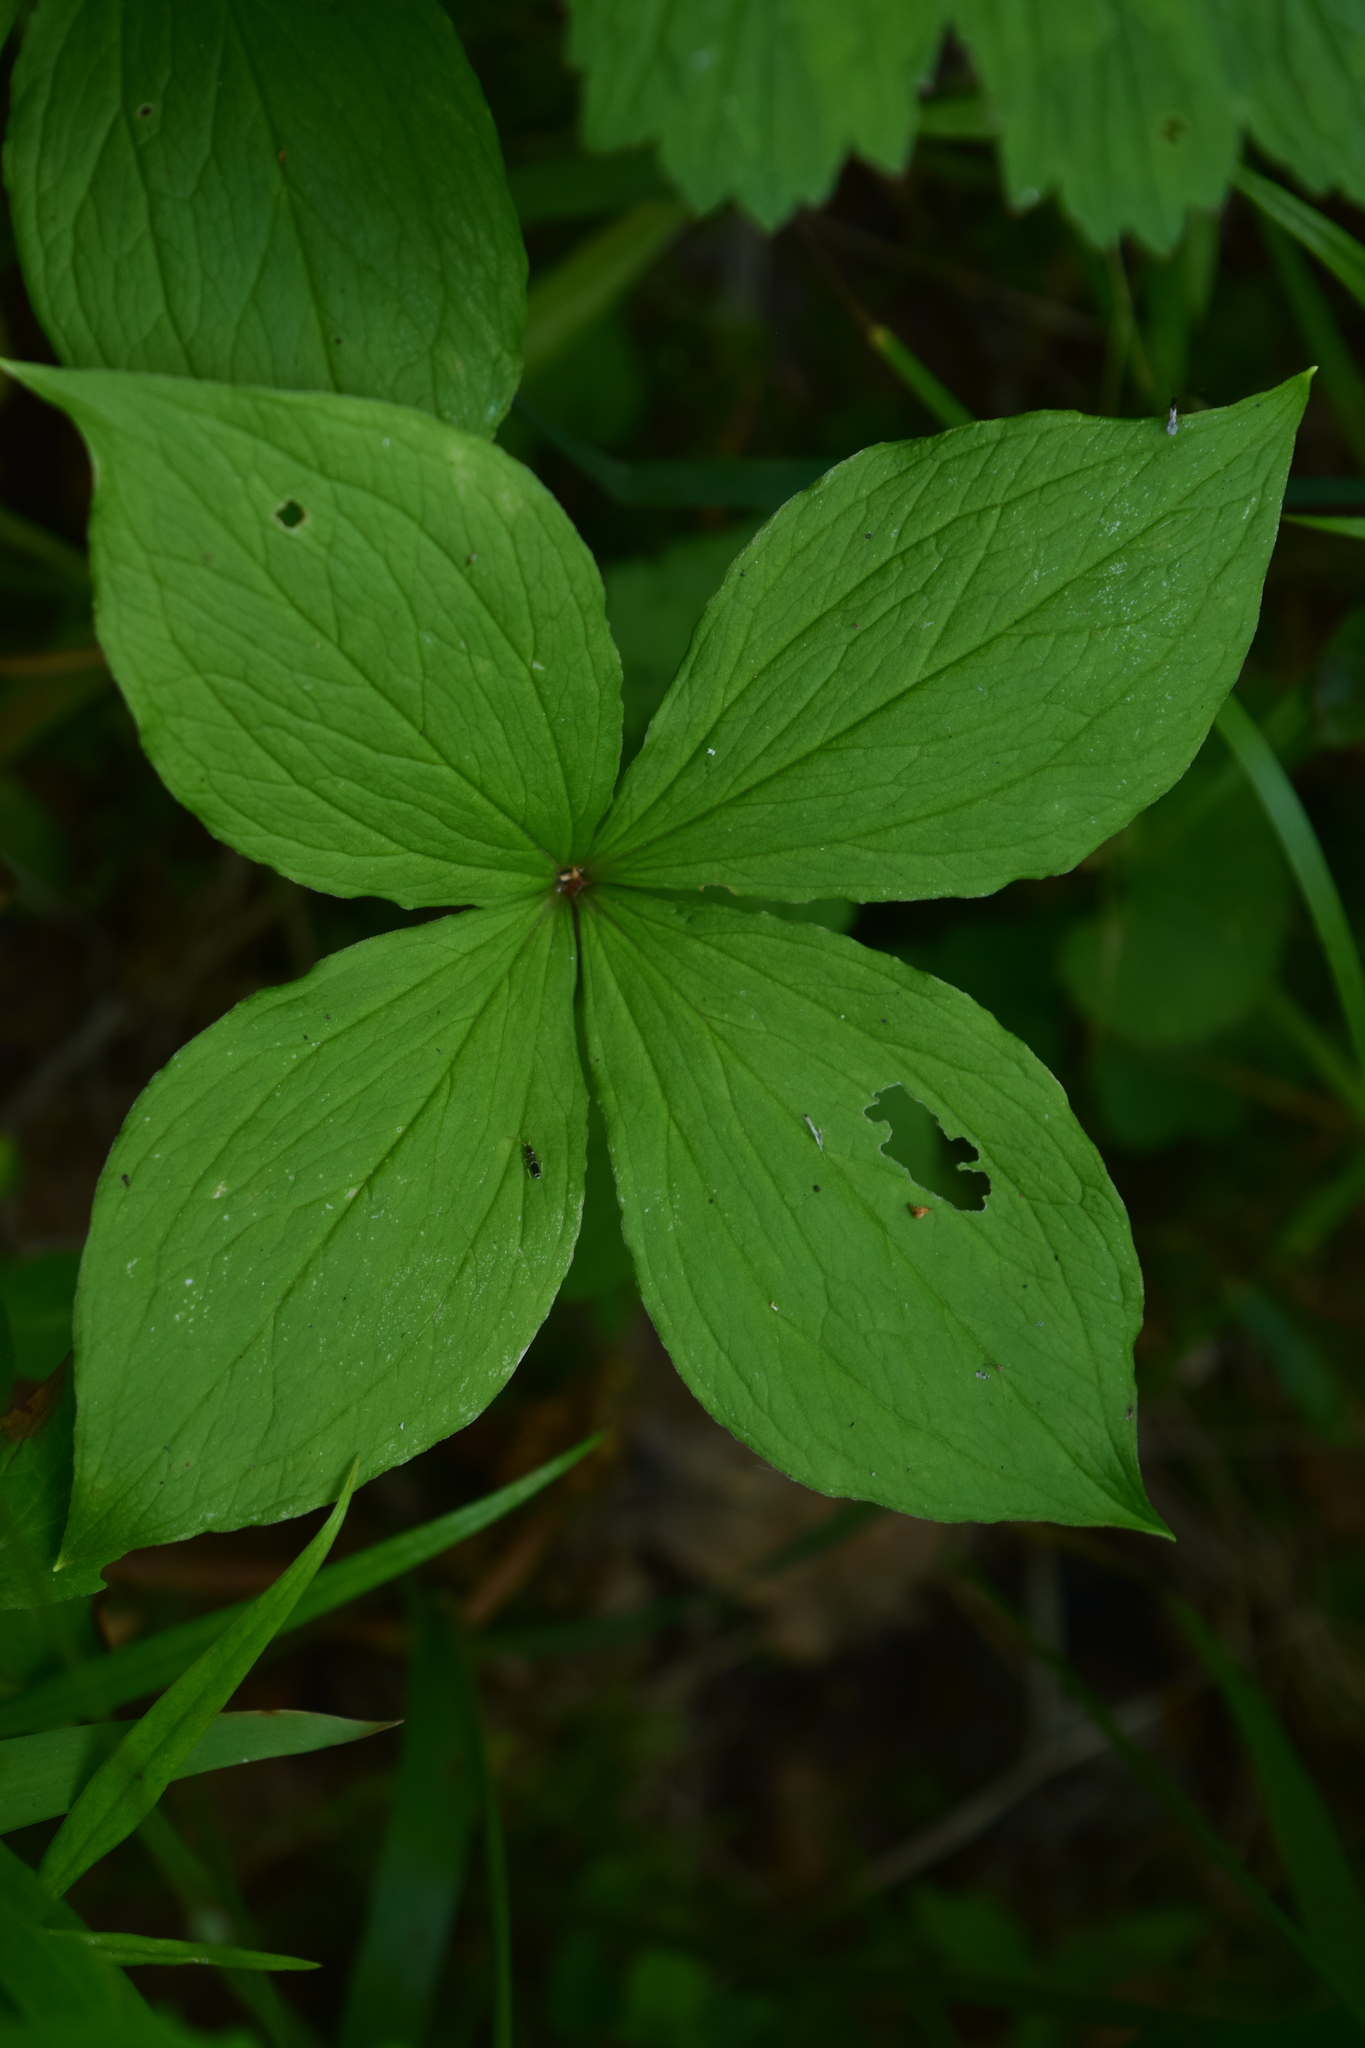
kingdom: Plantae
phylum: Tracheophyta
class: Liliopsida
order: Liliales
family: Melanthiaceae
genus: Paris
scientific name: Paris quadrifolia
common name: Herb-paris
